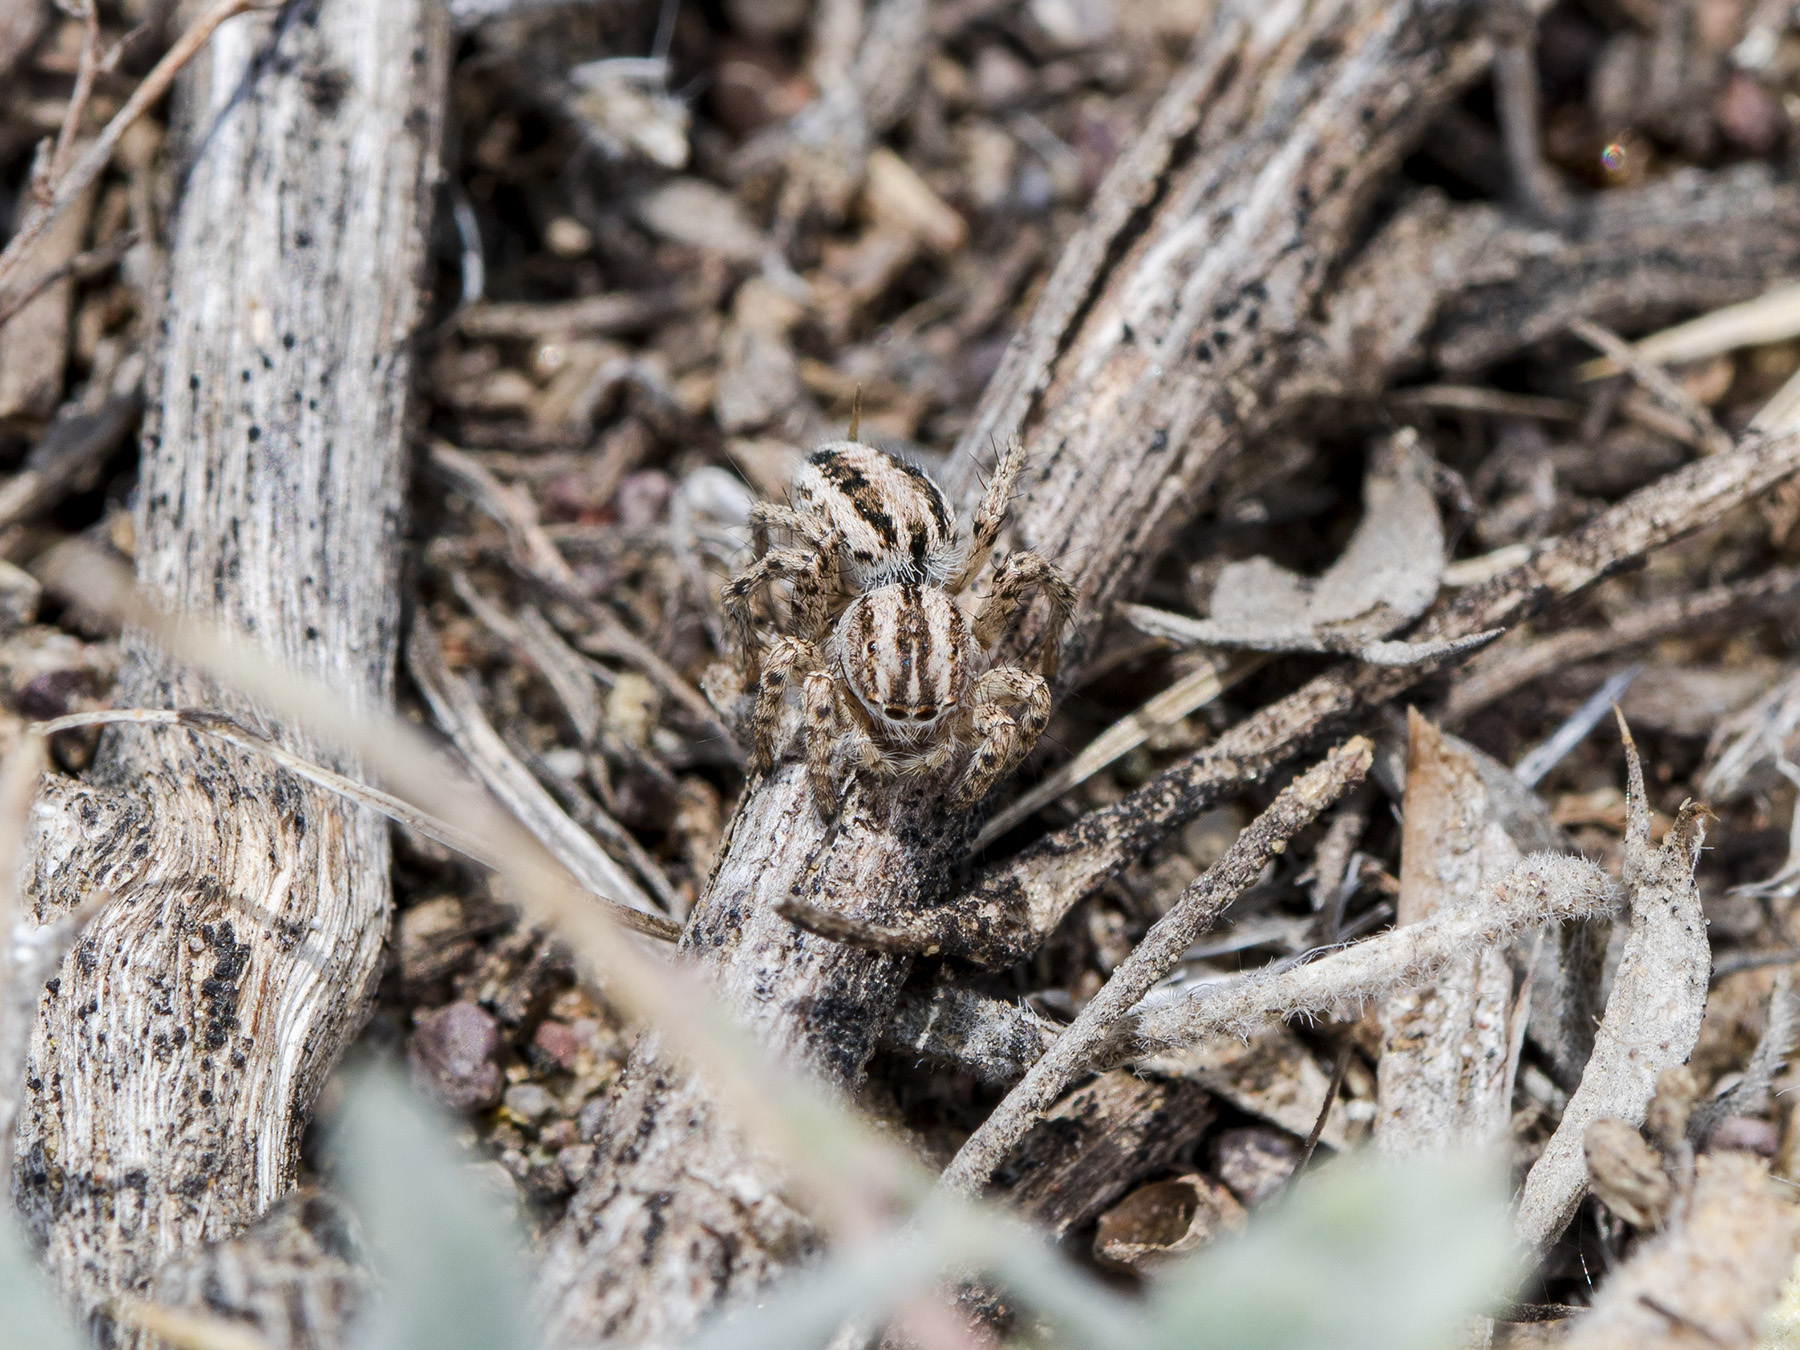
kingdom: Animalia
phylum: Arthropoda
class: Arachnida
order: Araneae
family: Salticidae
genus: Aelurillus
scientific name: Aelurillus m-nigrum
